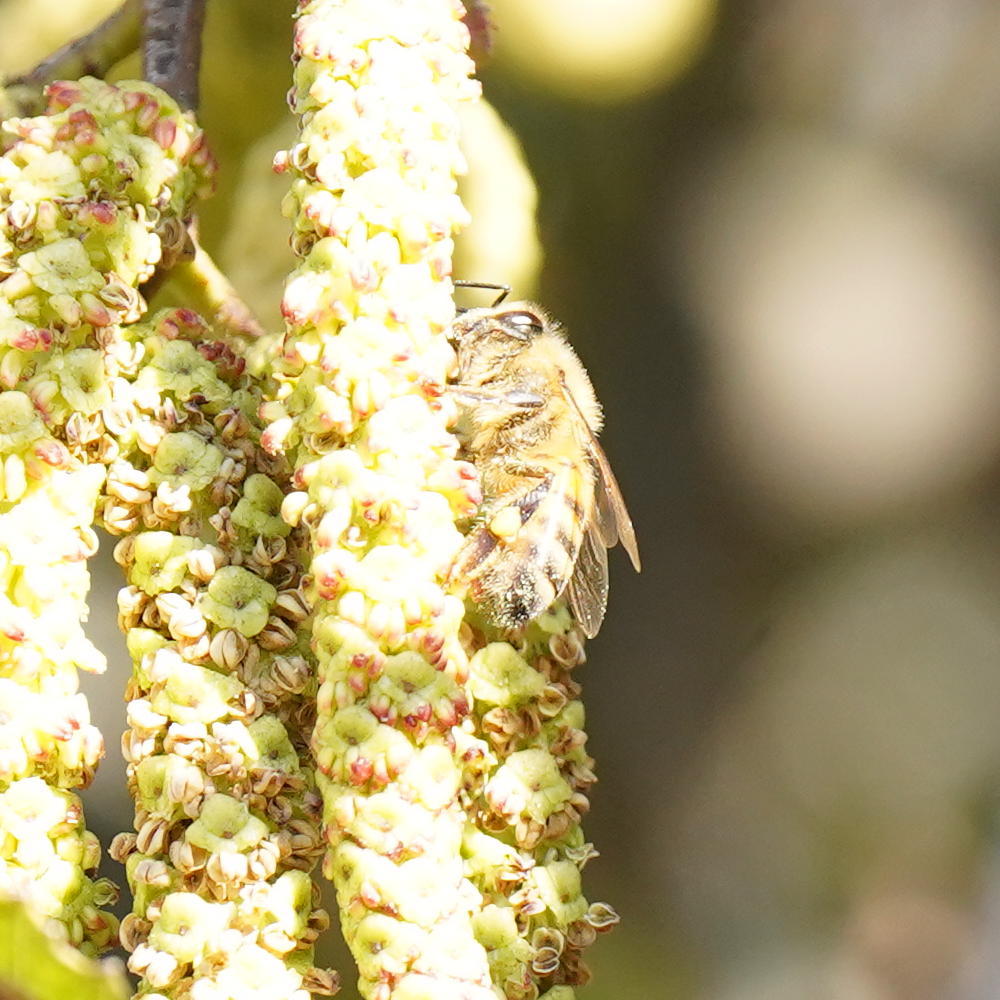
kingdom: Animalia
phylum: Arthropoda
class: Insecta
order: Hymenoptera
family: Apidae
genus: Apis
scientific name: Apis mellifera
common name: Honey bee
